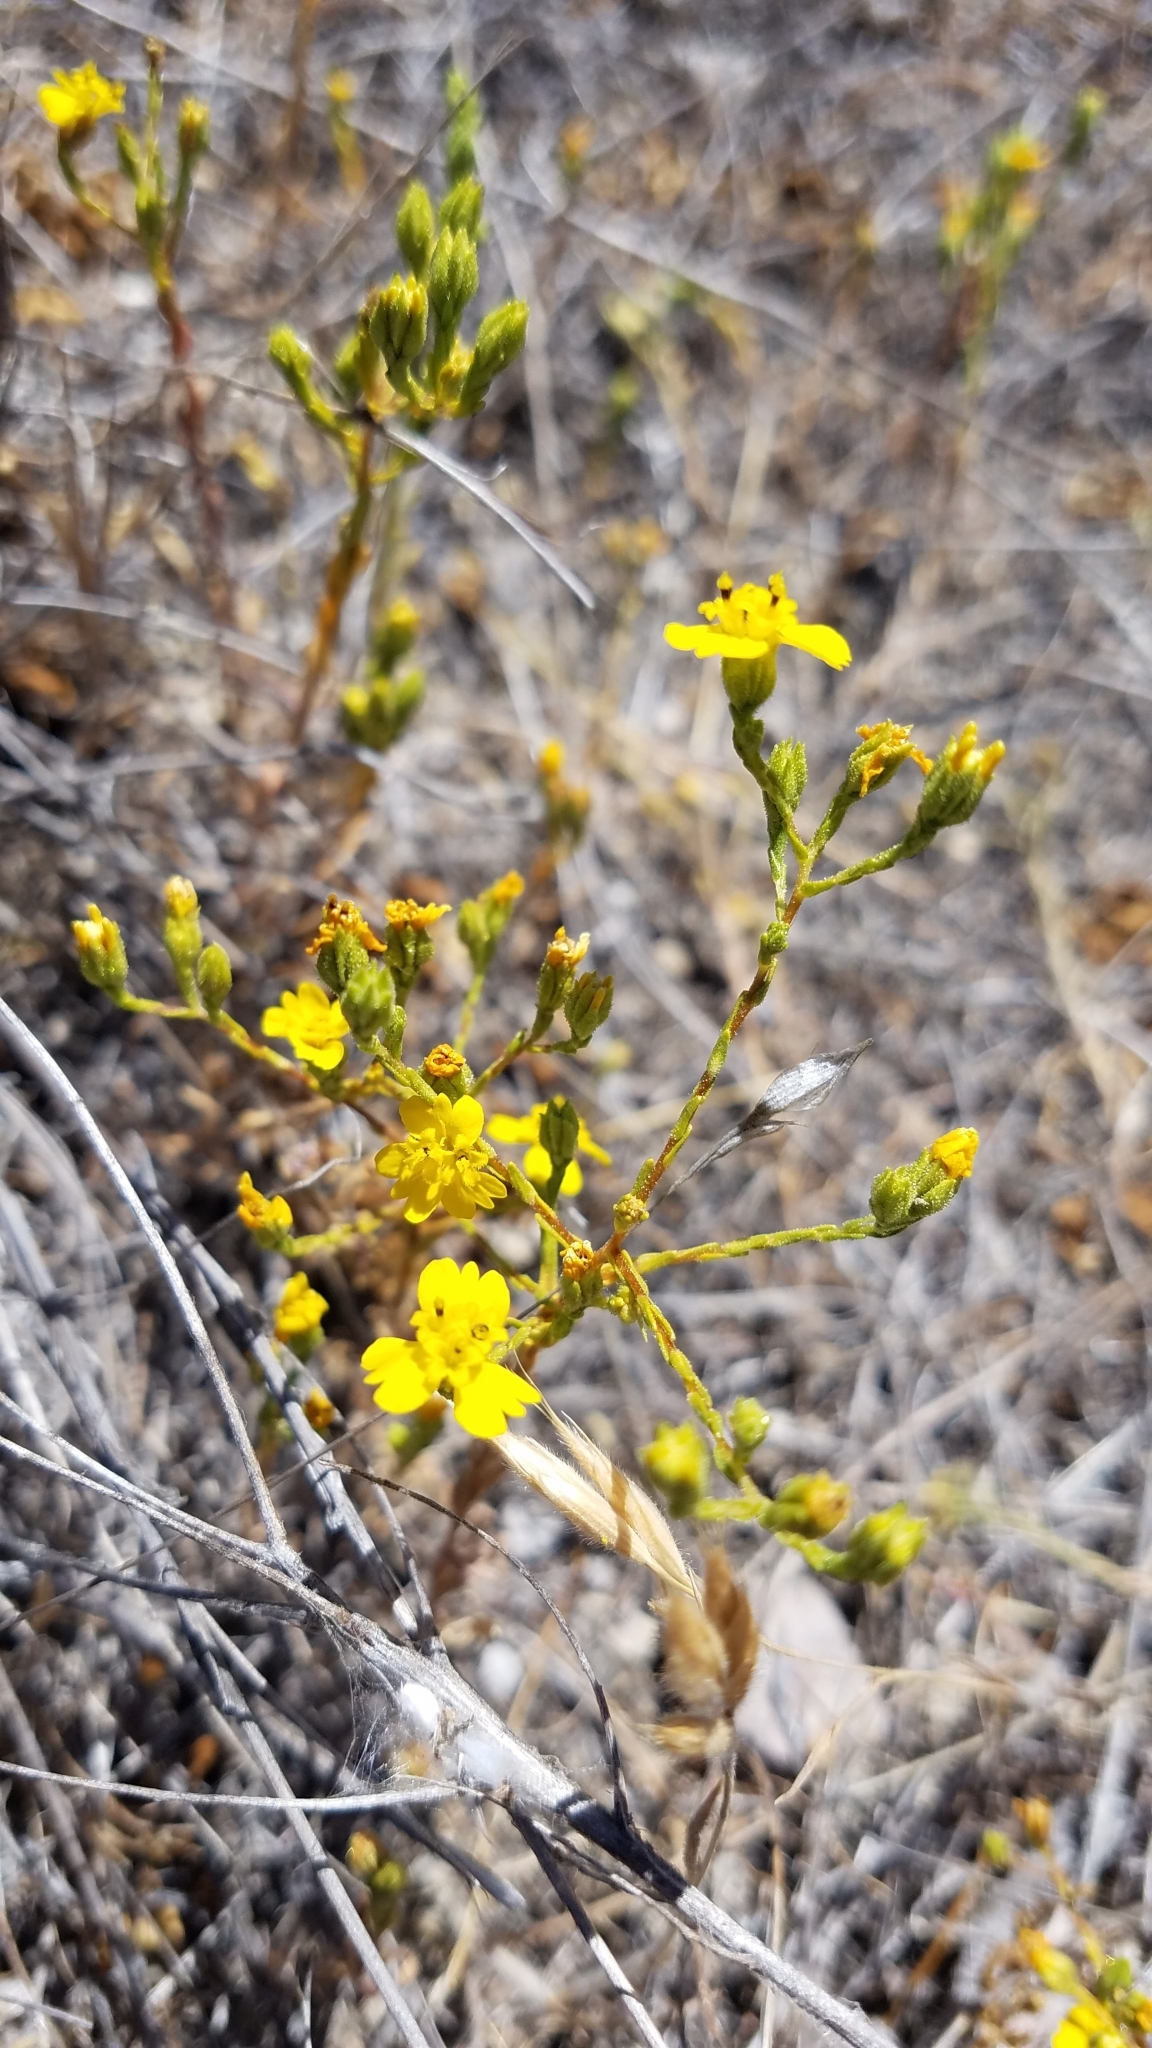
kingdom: Plantae
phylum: Tracheophyta
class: Magnoliopsida
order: Asterales
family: Asteraceae
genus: Deinandra
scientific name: Deinandra lobbii
